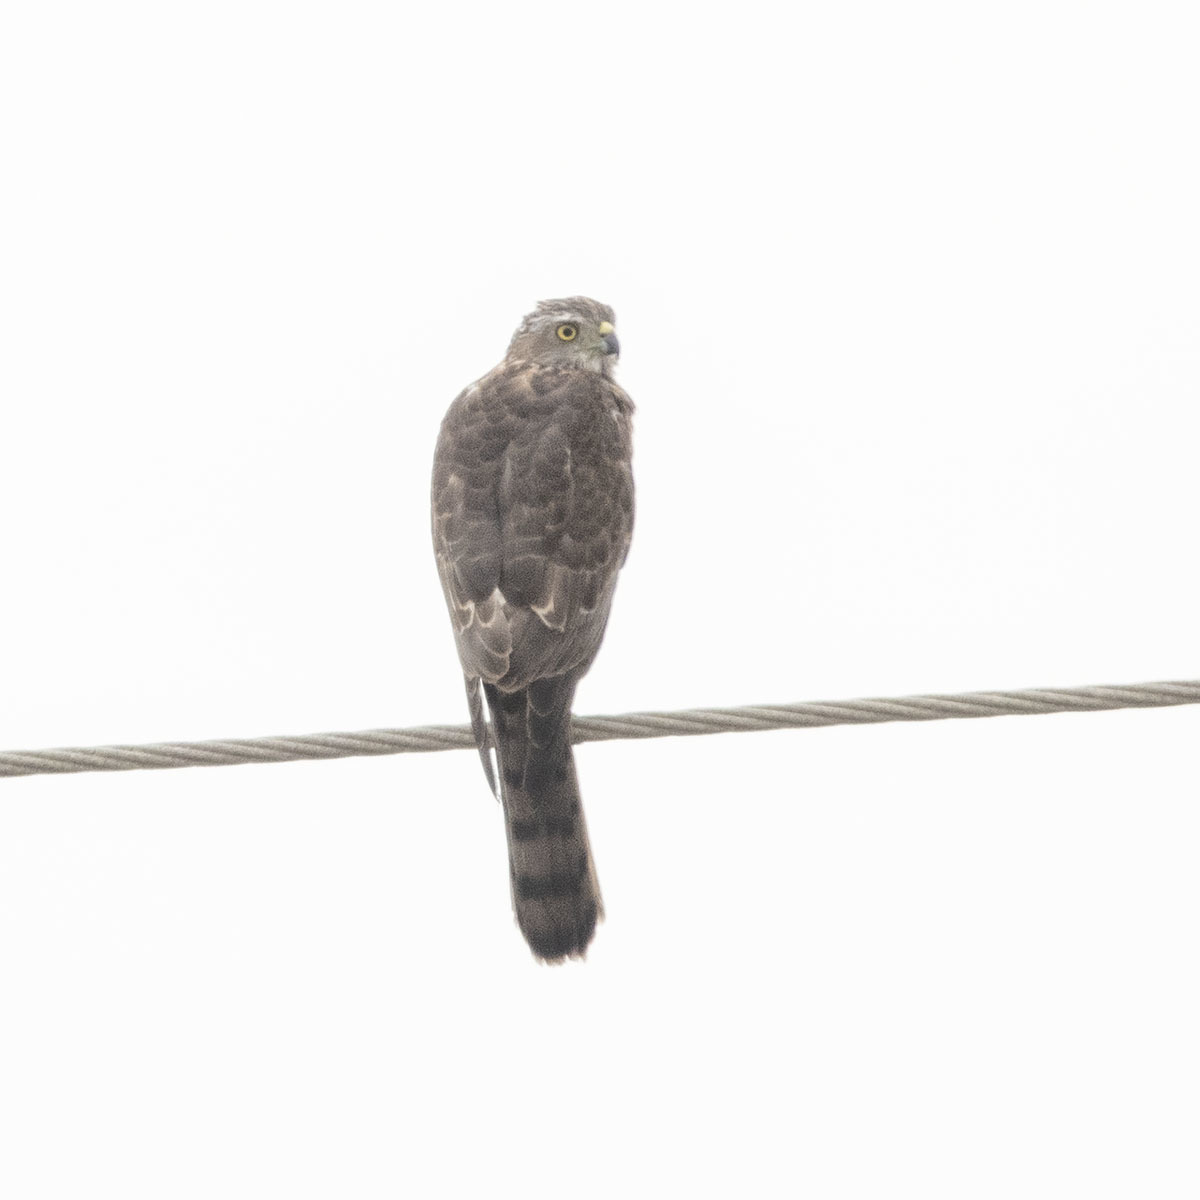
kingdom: Animalia
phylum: Chordata
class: Aves
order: Accipitriformes
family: Accipitridae
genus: Accipiter
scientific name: Accipiter badius
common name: Shikra
